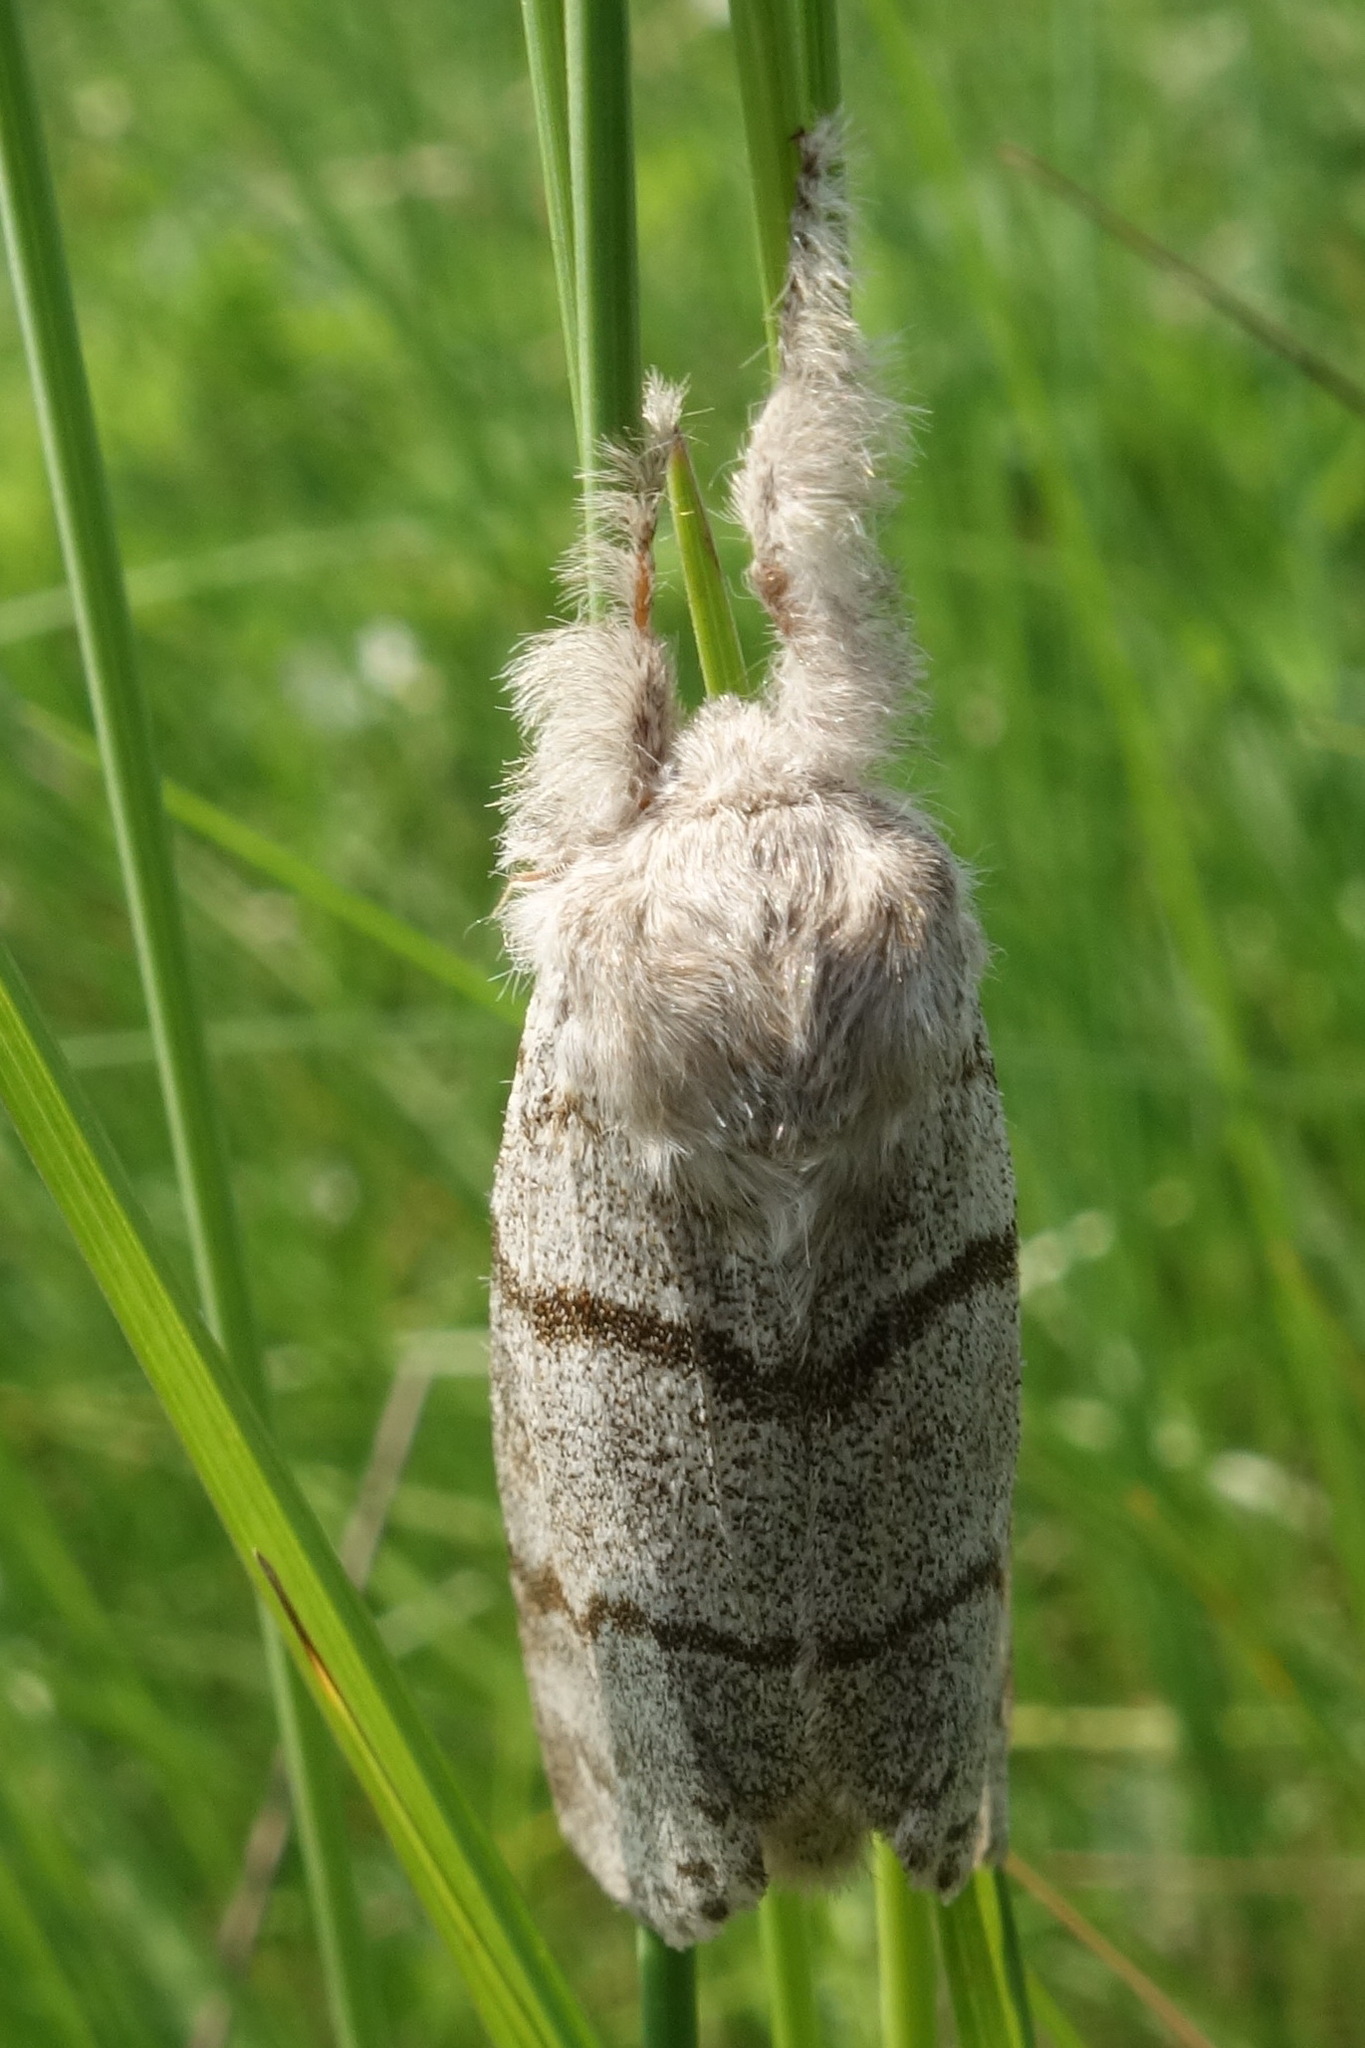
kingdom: Animalia
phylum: Arthropoda
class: Insecta
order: Lepidoptera
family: Erebidae
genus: Calliteara
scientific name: Calliteara pudibunda
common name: Pale tussock
